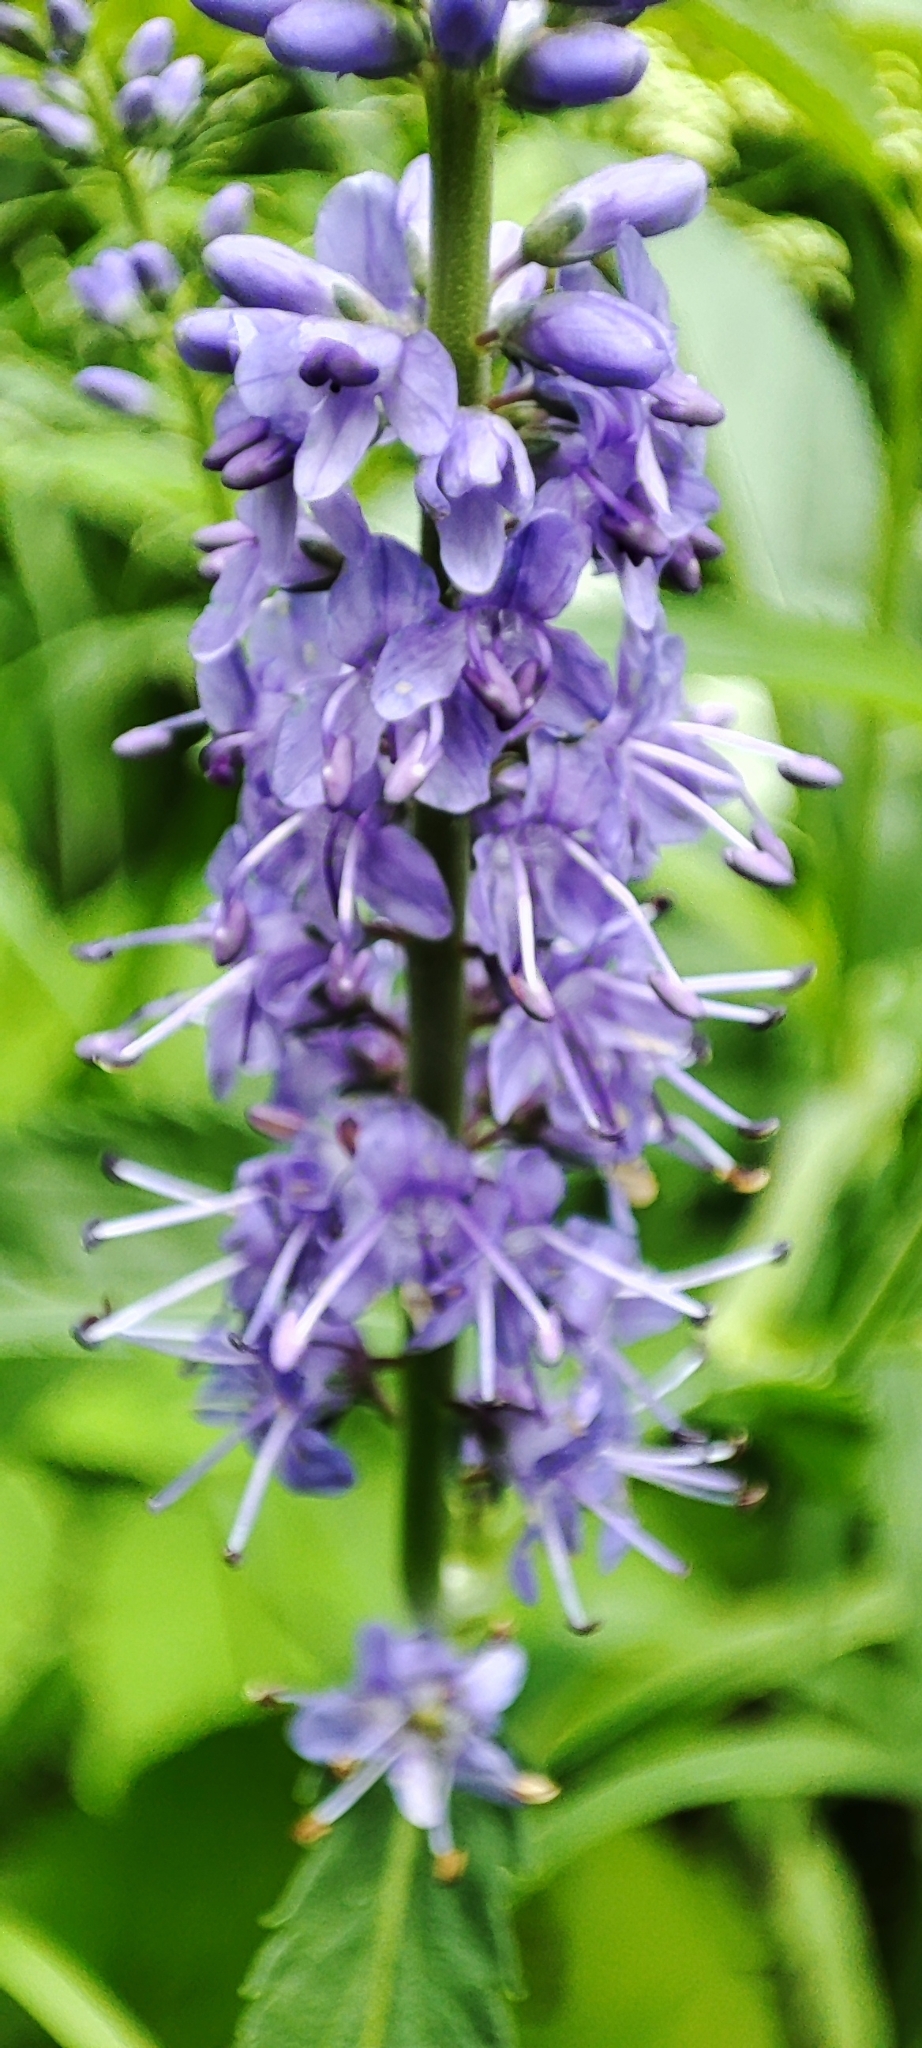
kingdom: Plantae
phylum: Tracheophyta
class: Magnoliopsida
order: Lamiales
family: Plantaginaceae
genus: Veronica
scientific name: Veronica longifolia
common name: Garden speedwell
